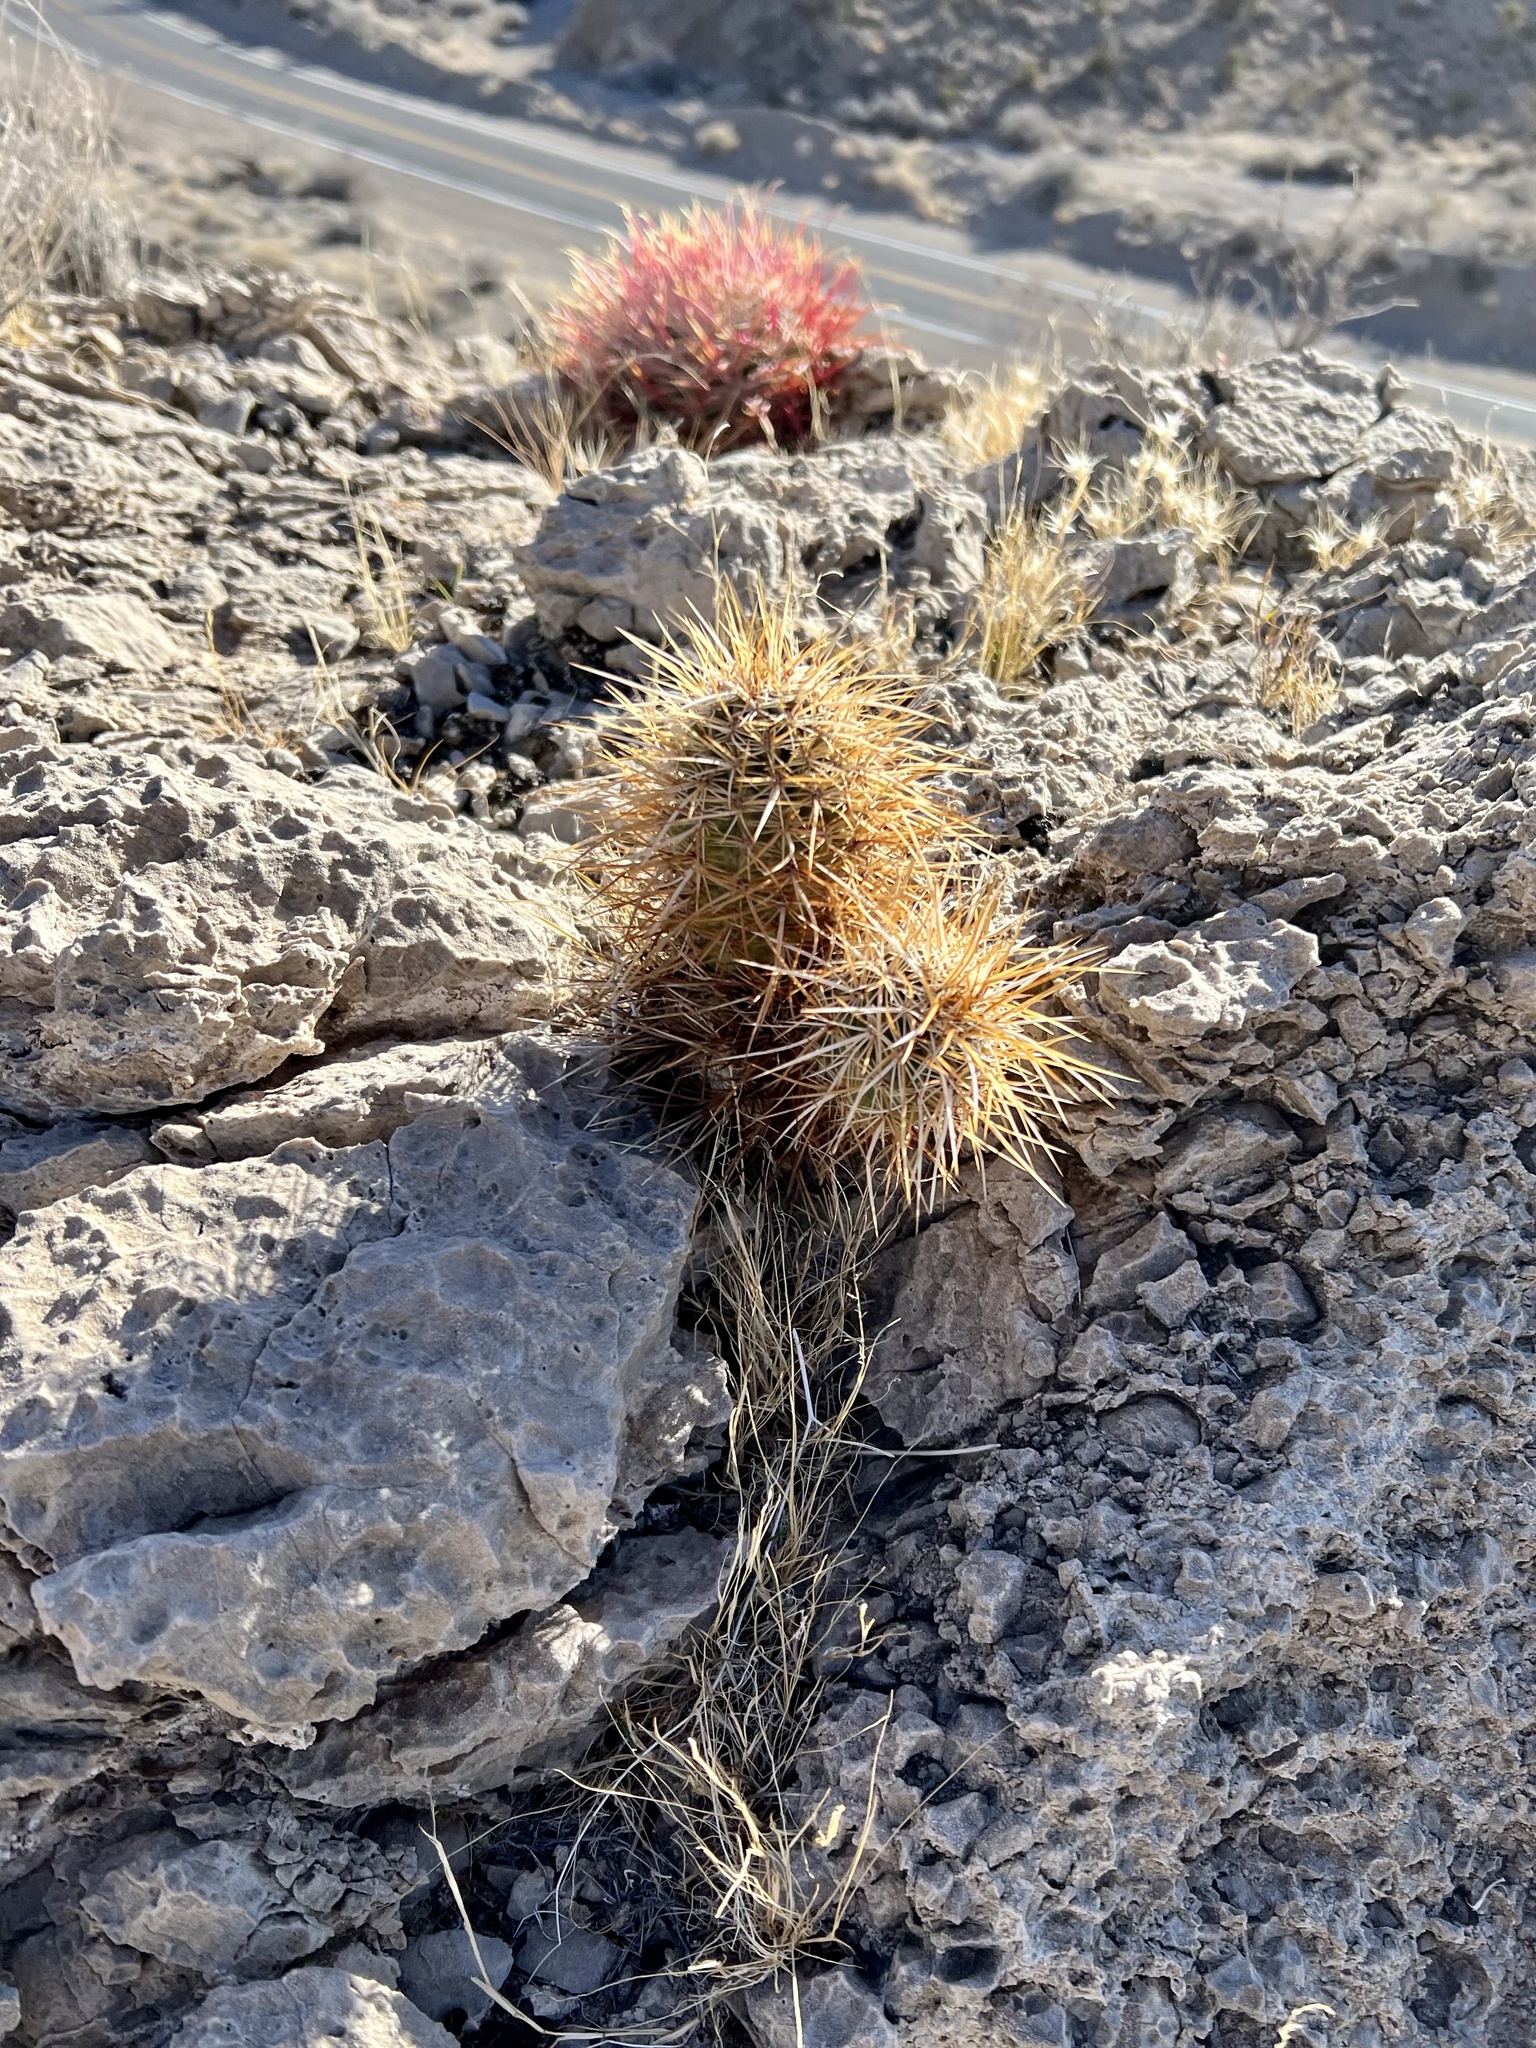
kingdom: Plantae
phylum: Tracheophyta
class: Magnoliopsida
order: Caryophyllales
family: Cactaceae
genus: Echinocereus
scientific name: Echinocereus engelmannii
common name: Engelmann's hedgehog cactus
